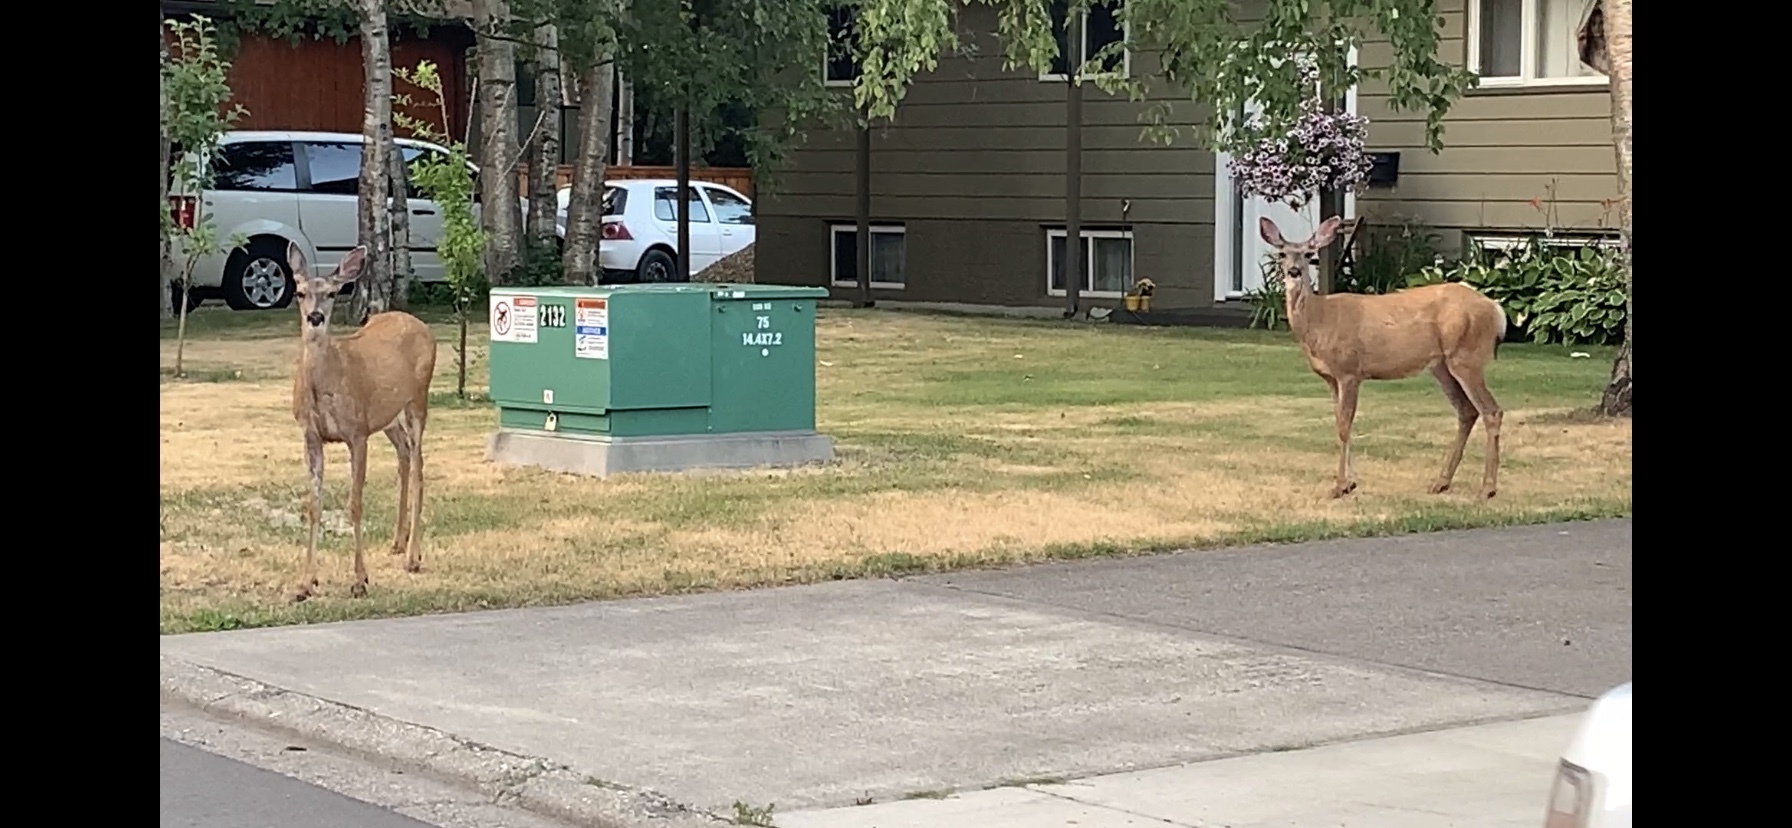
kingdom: Animalia
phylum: Chordata
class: Mammalia
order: Artiodactyla
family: Cervidae
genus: Odocoileus
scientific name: Odocoileus hemionus
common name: Mule deer
